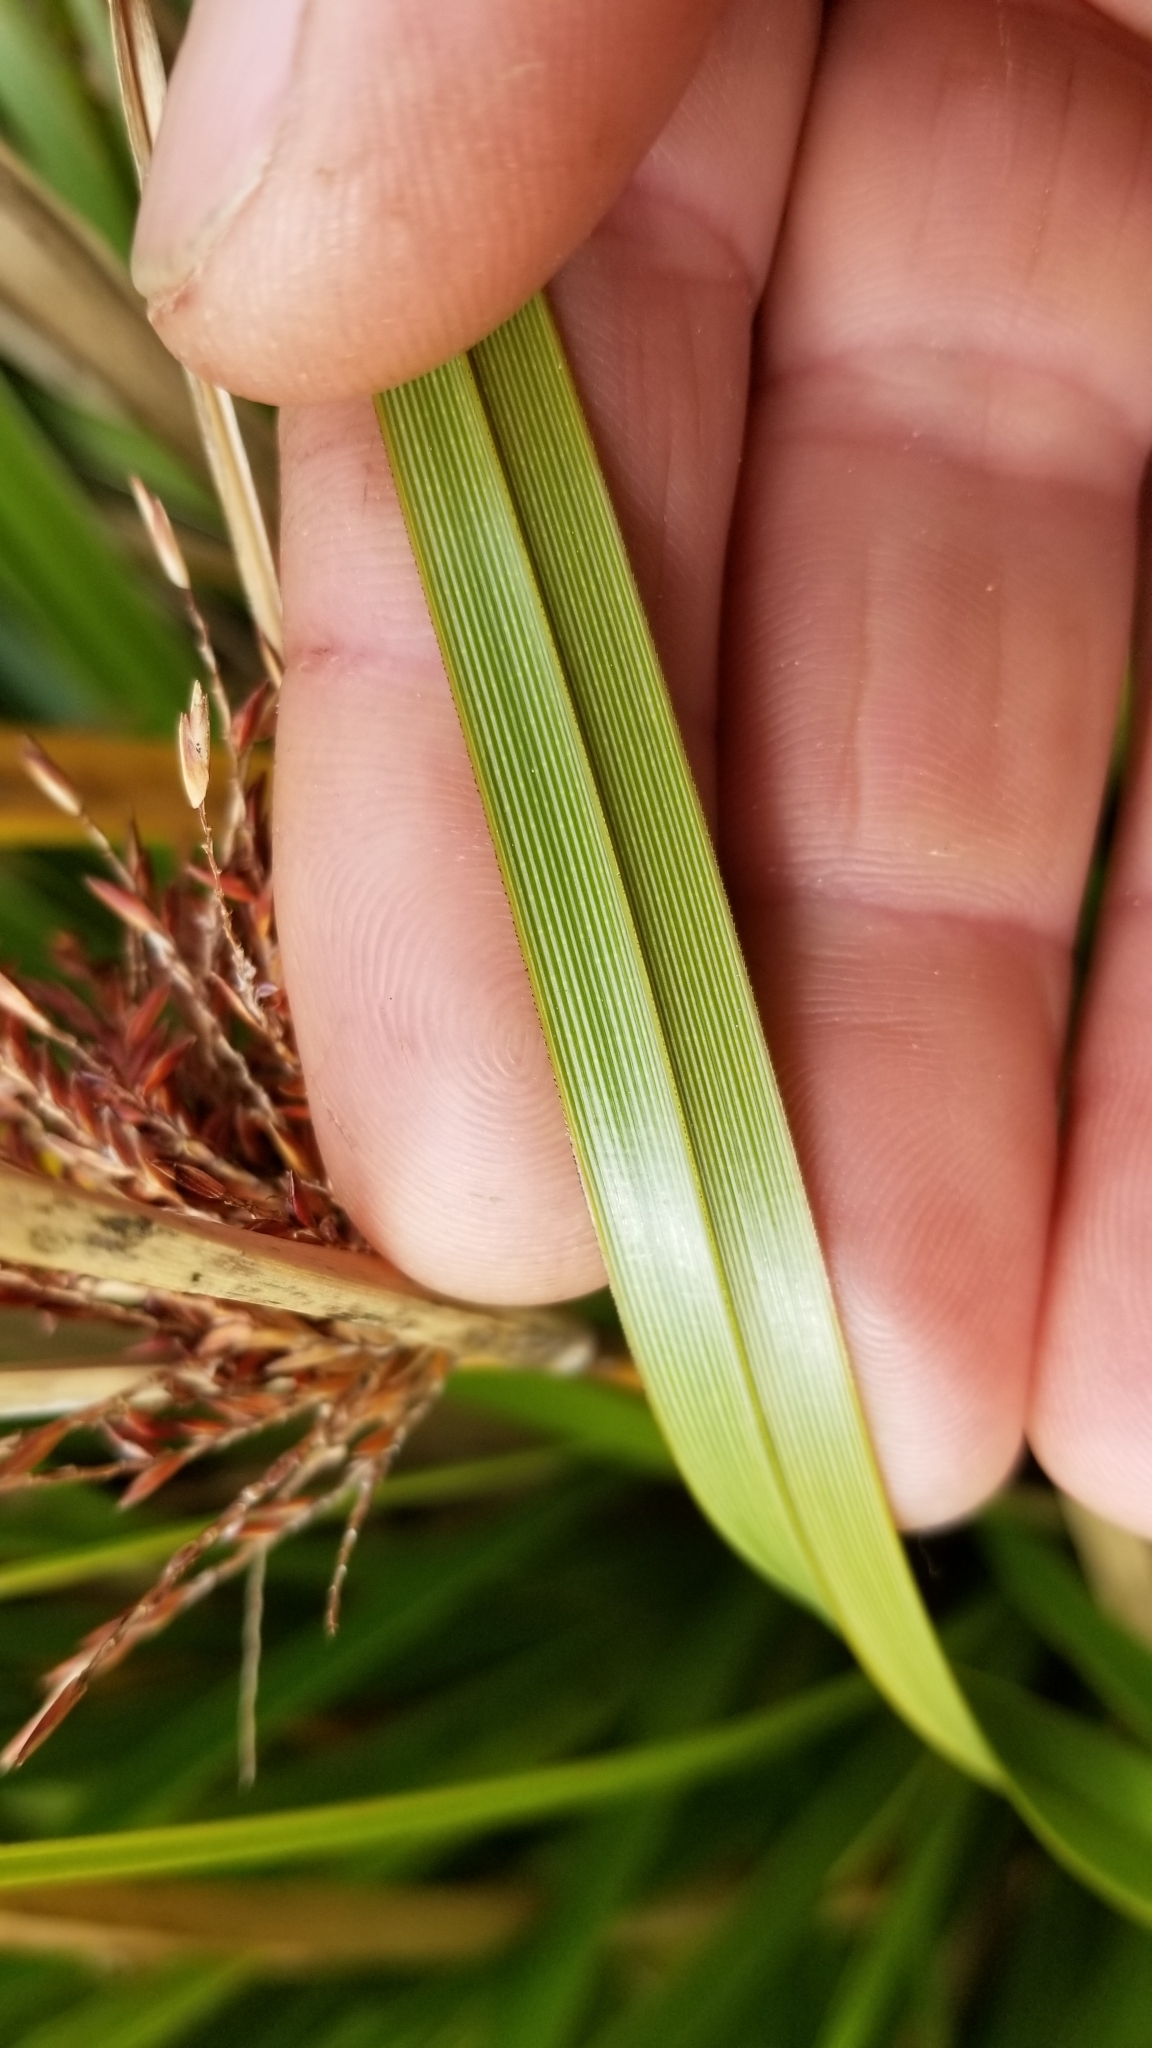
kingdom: Plantae
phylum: Tracheophyta
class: Liliopsida
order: Poales
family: Cyperaceae
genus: Cyperus
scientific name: Cyperus ustulatus
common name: Giant umbrella-sedge
